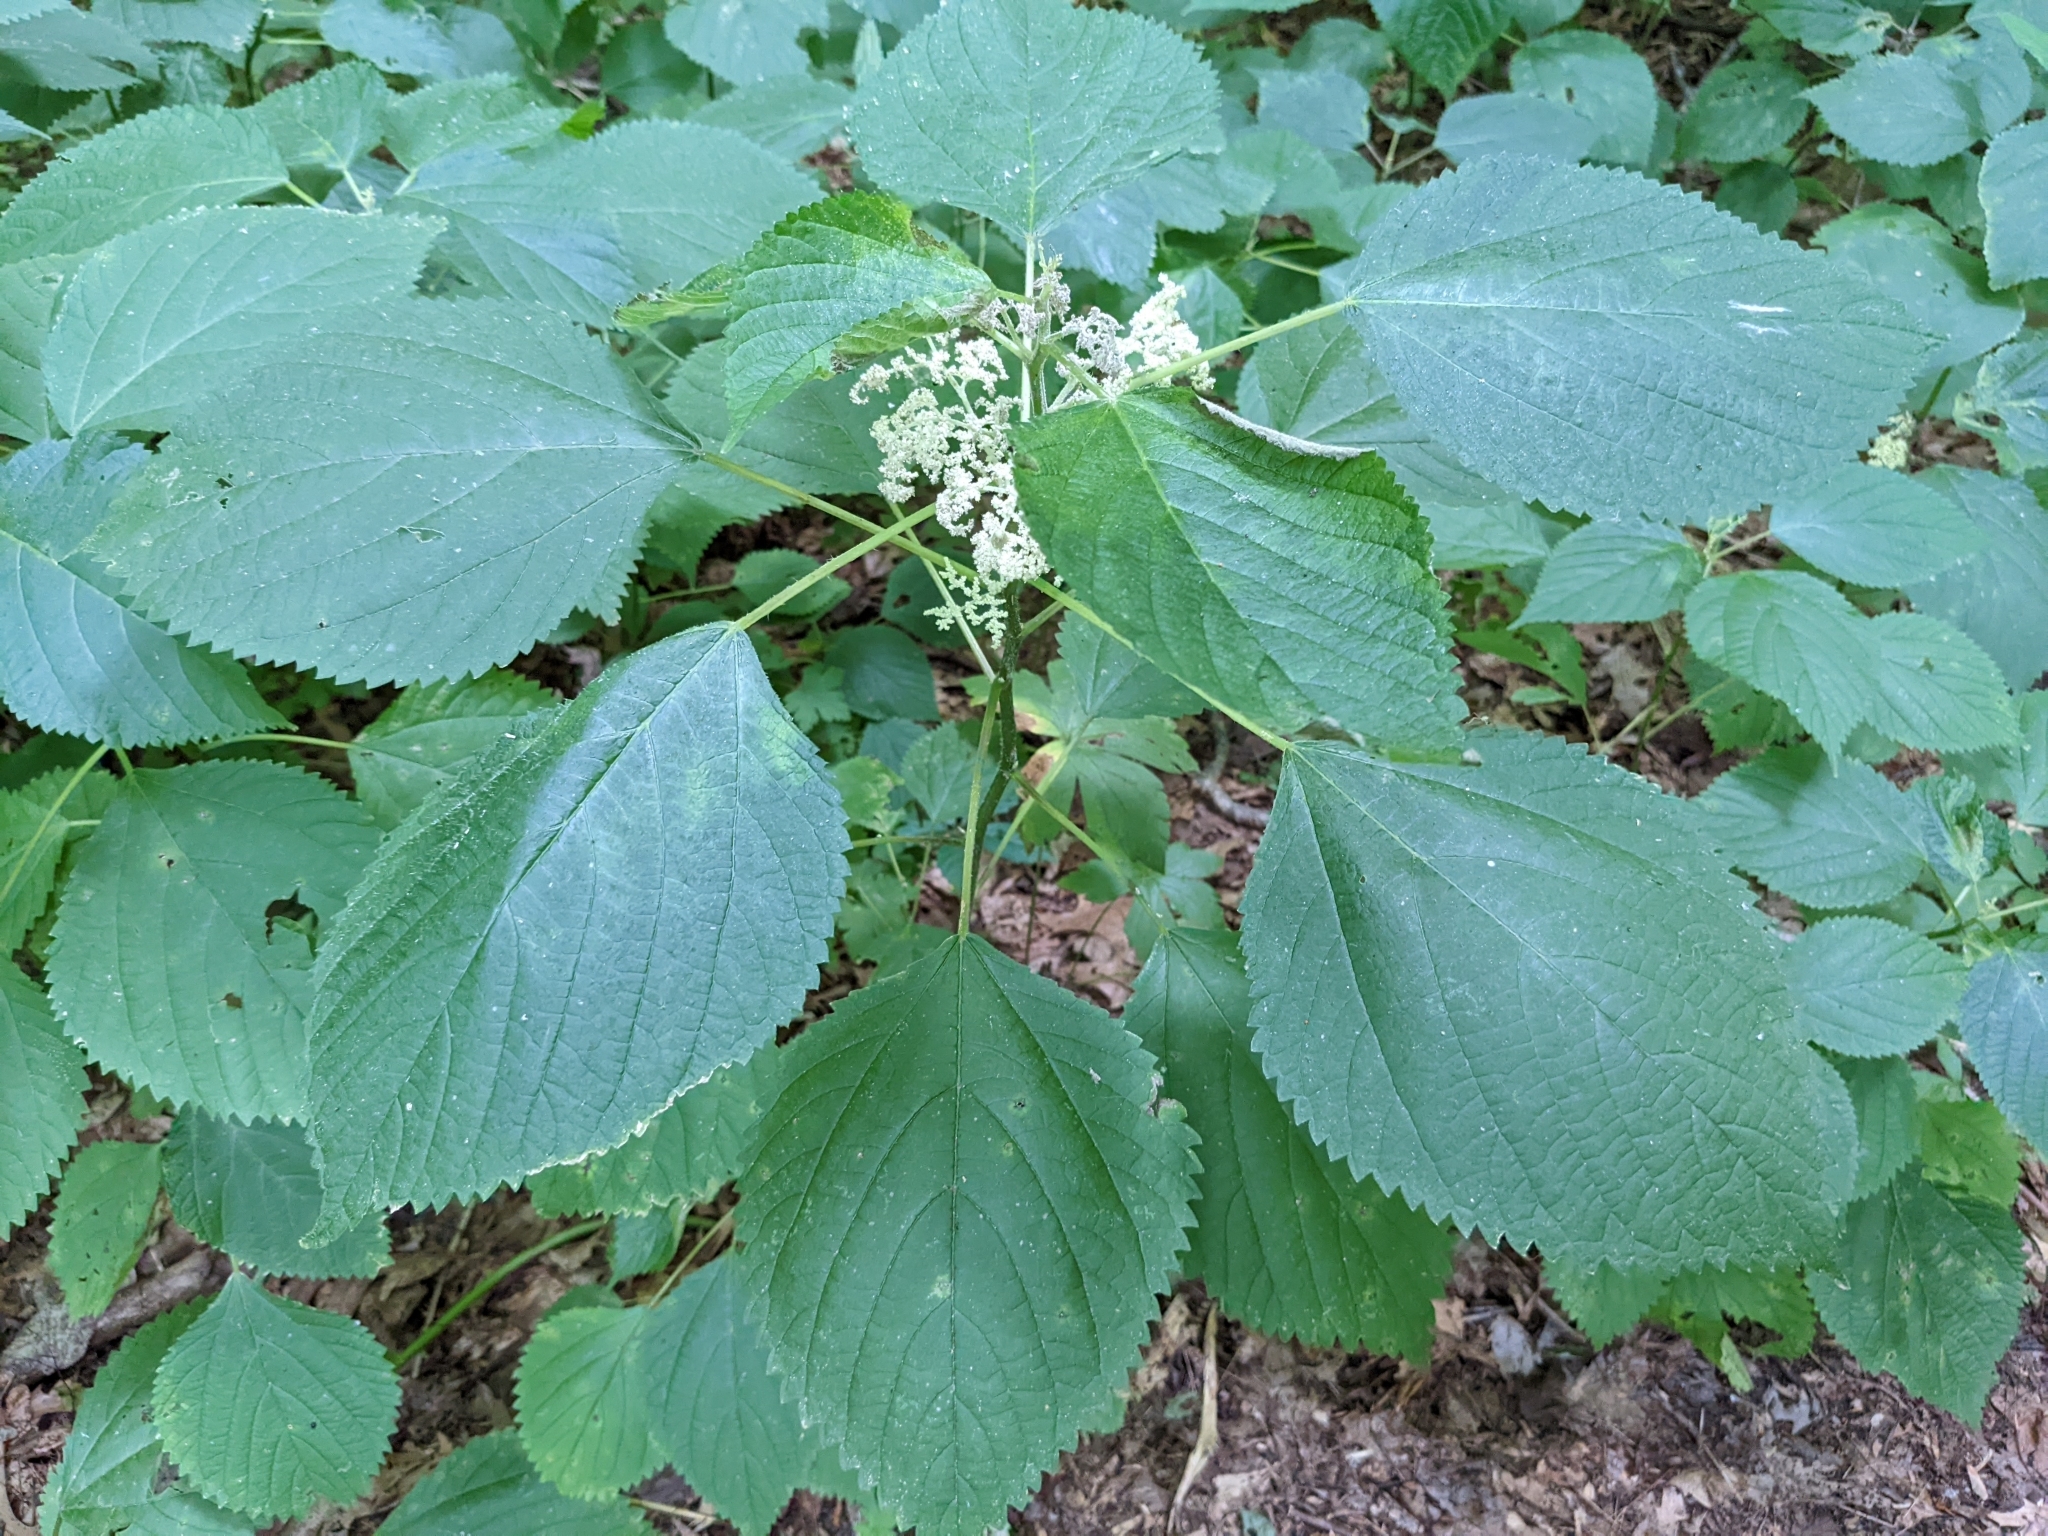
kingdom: Plantae
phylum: Tracheophyta
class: Magnoliopsida
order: Rosales
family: Urticaceae
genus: Laportea
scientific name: Laportea canadensis
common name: Canada nettle
